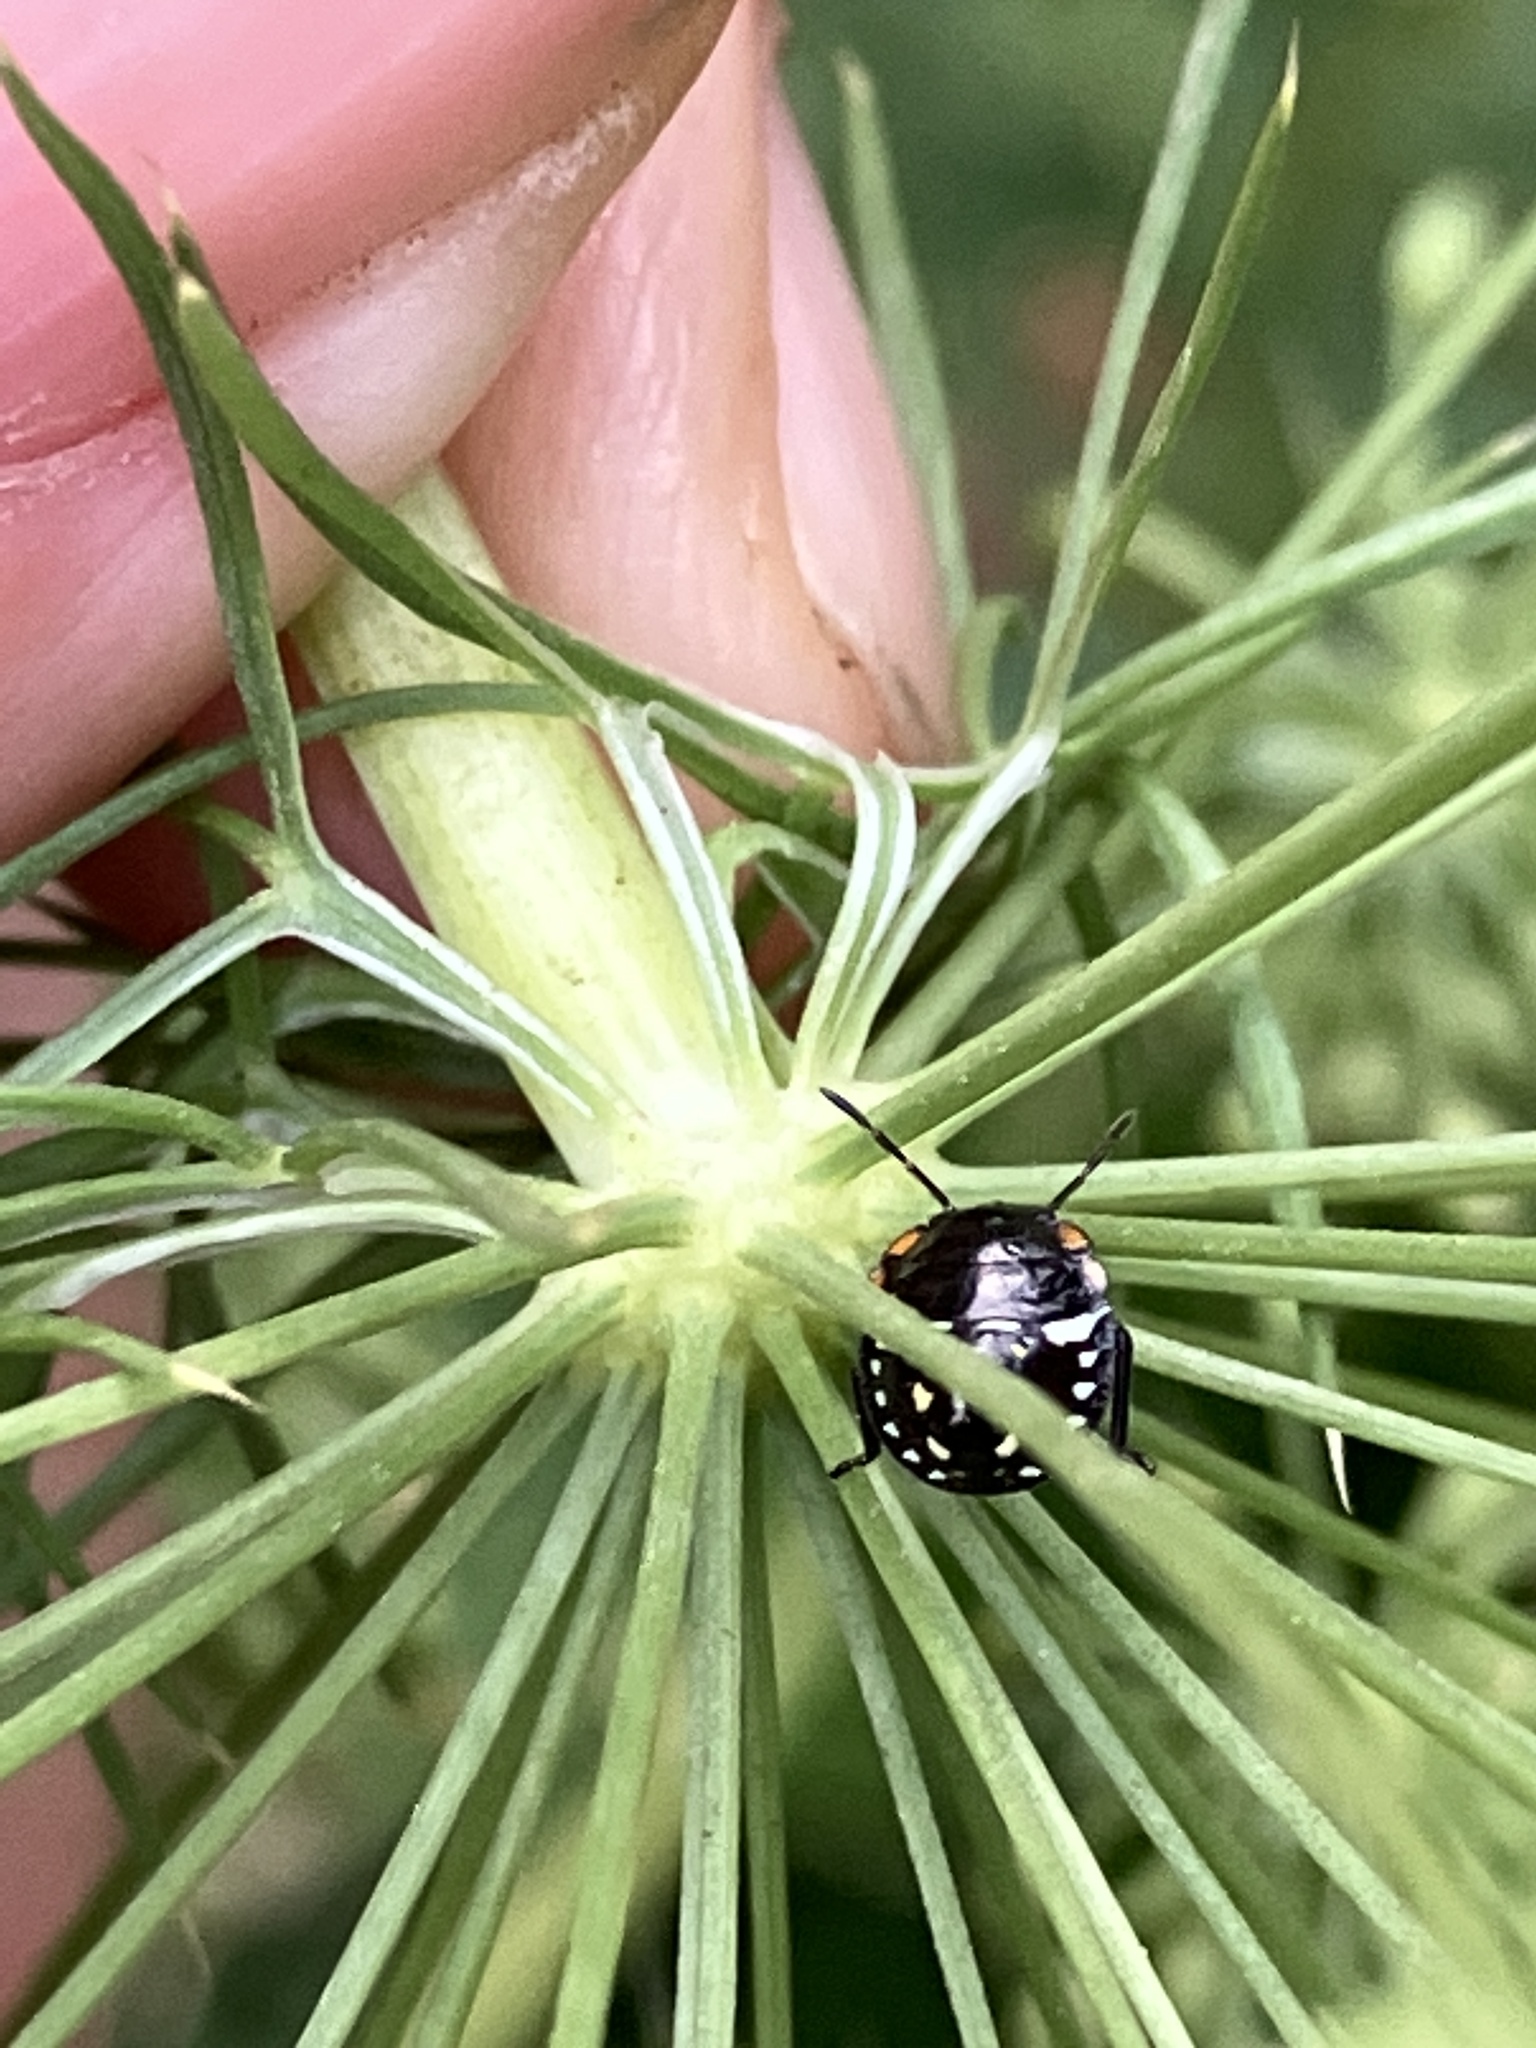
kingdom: Animalia
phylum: Arthropoda
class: Insecta
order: Hemiptera
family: Pentatomidae
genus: Nezara
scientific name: Nezara viridula
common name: Southern green stink bug
